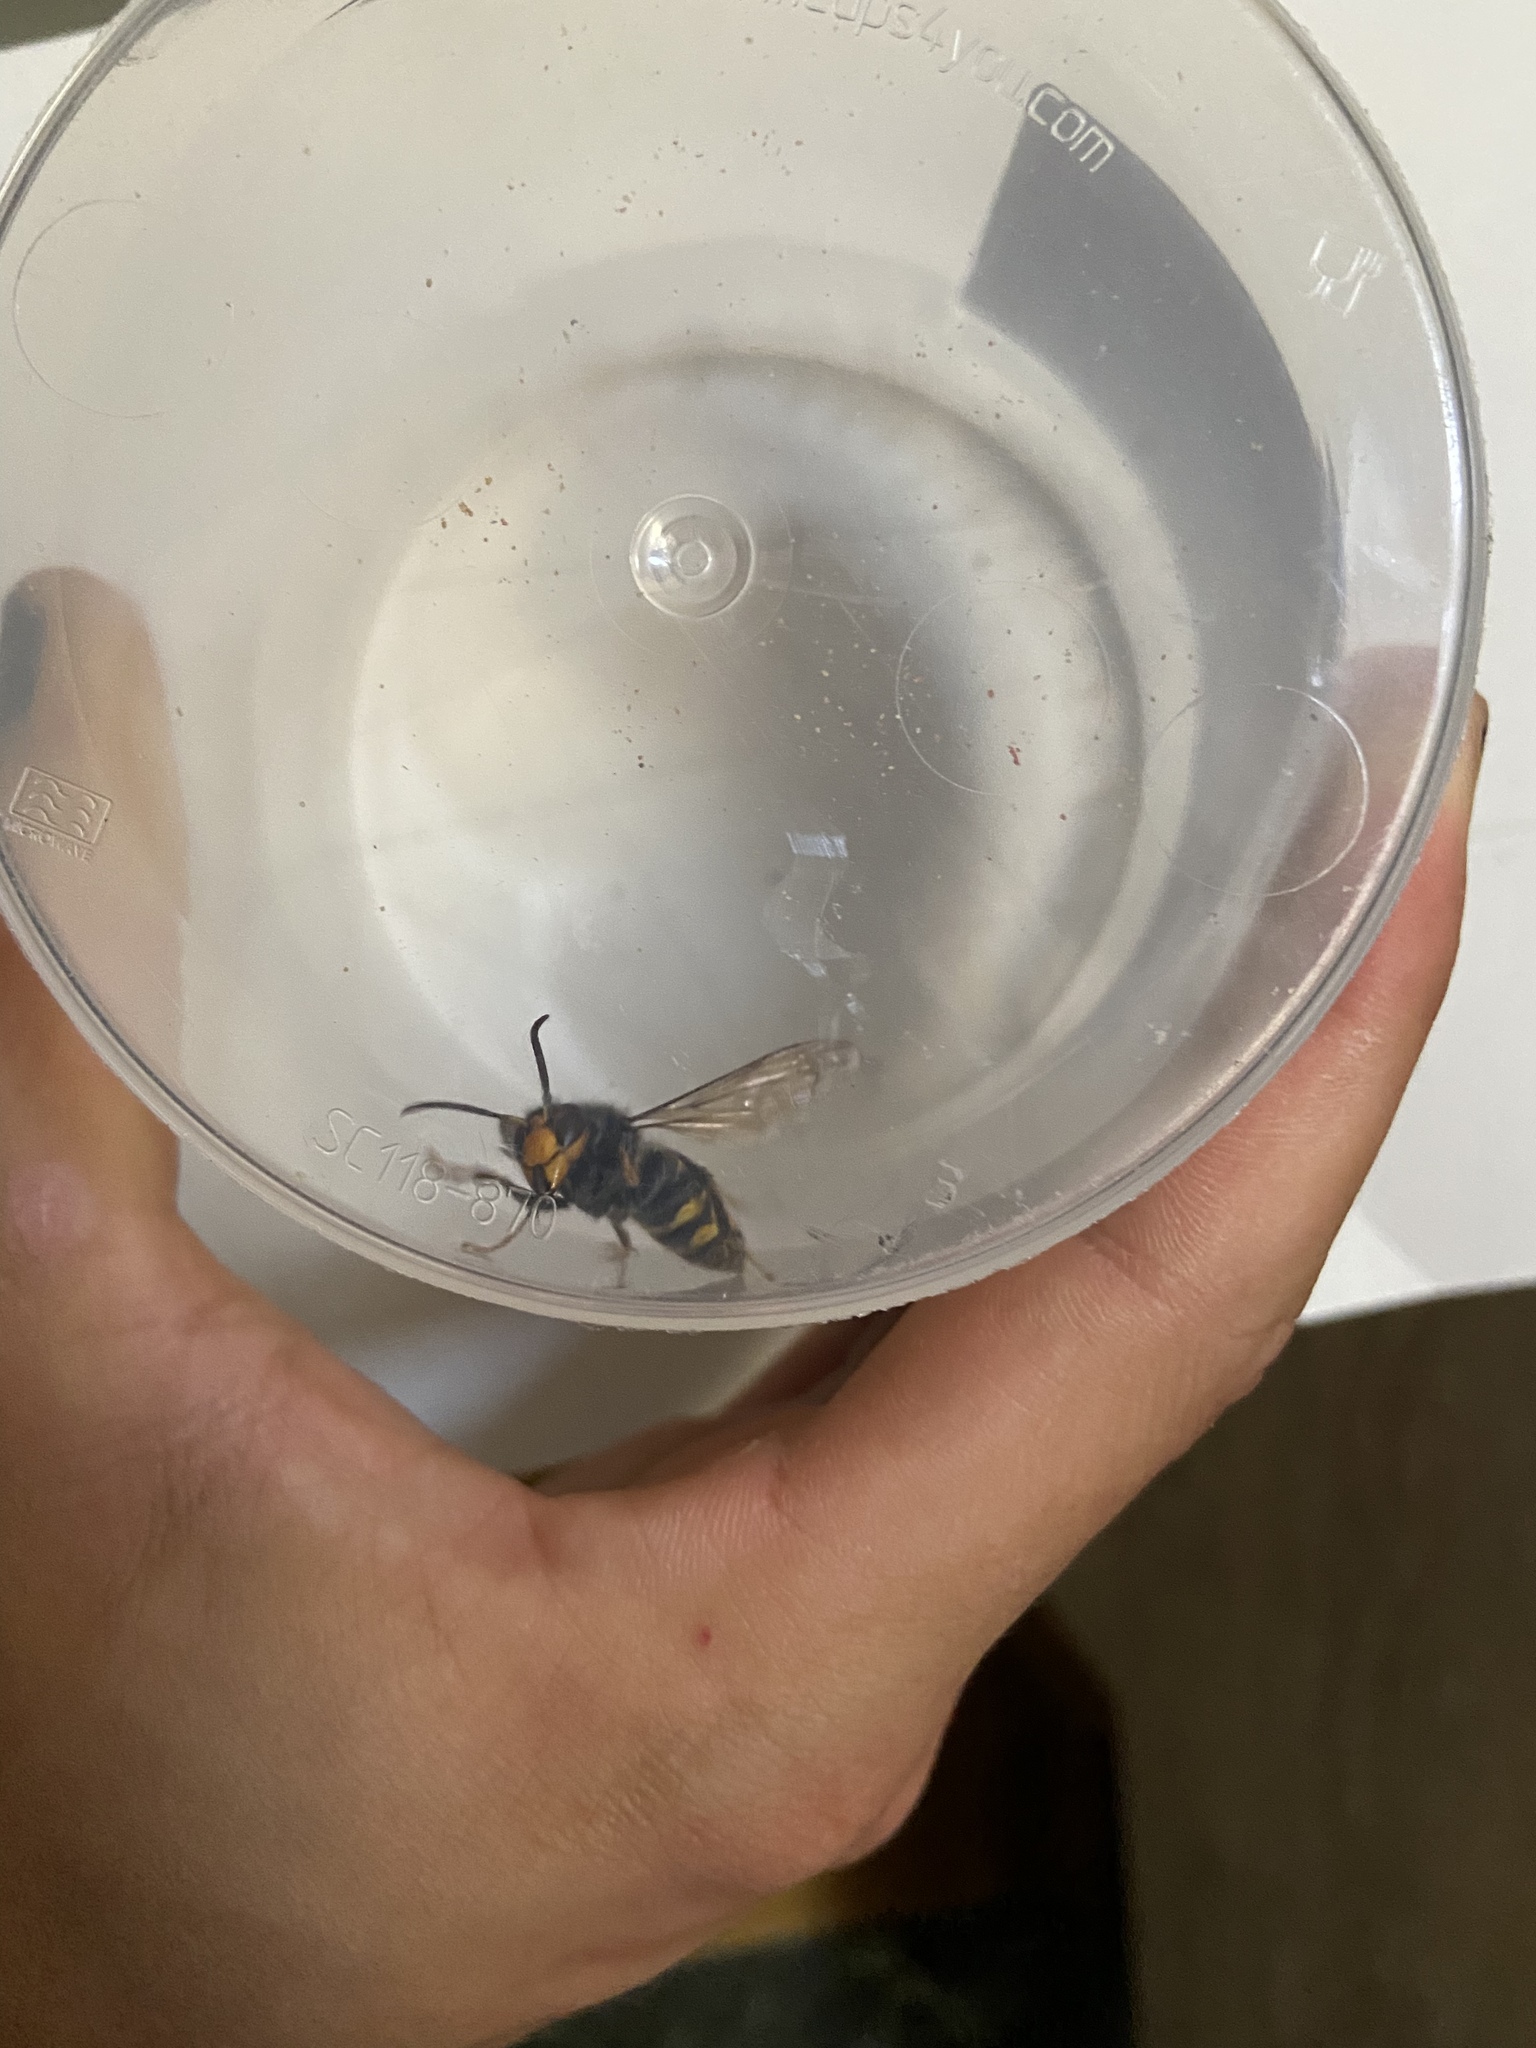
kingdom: Animalia
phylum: Arthropoda
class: Insecta
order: Hymenoptera
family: Vespidae
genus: Vespa
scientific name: Vespa velutina
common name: Asian hornet
